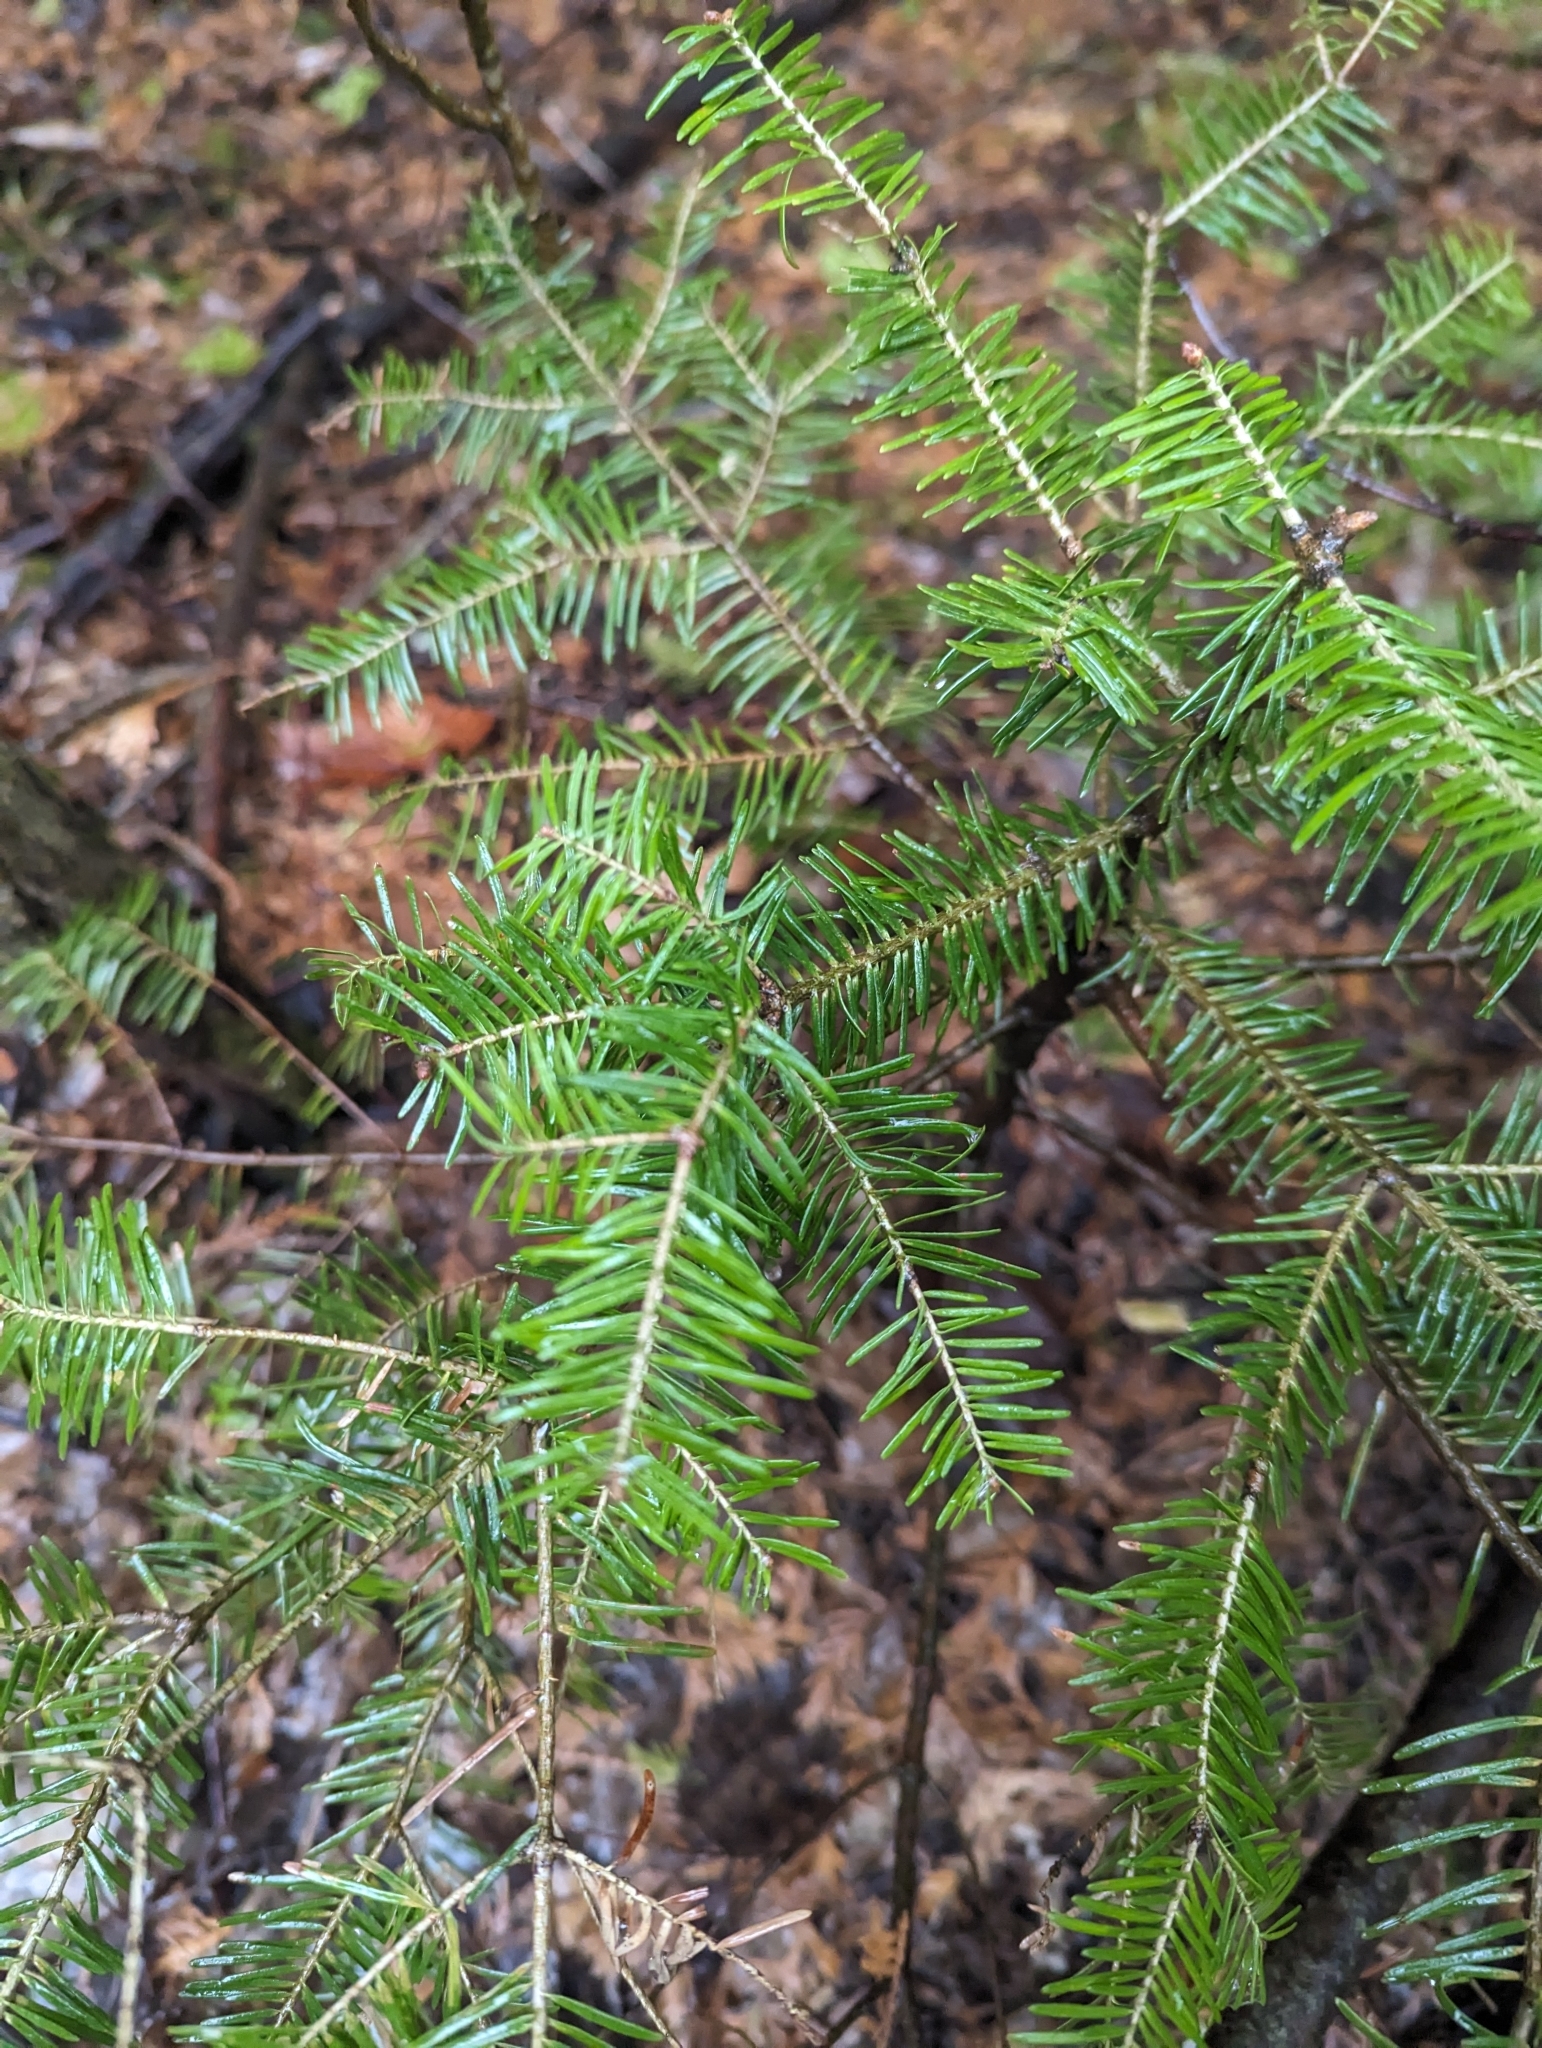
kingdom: Plantae
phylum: Tracheophyta
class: Pinopsida
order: Pinales
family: Pinaceae
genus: Abies
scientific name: Abies balsamea
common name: Balsam fir
